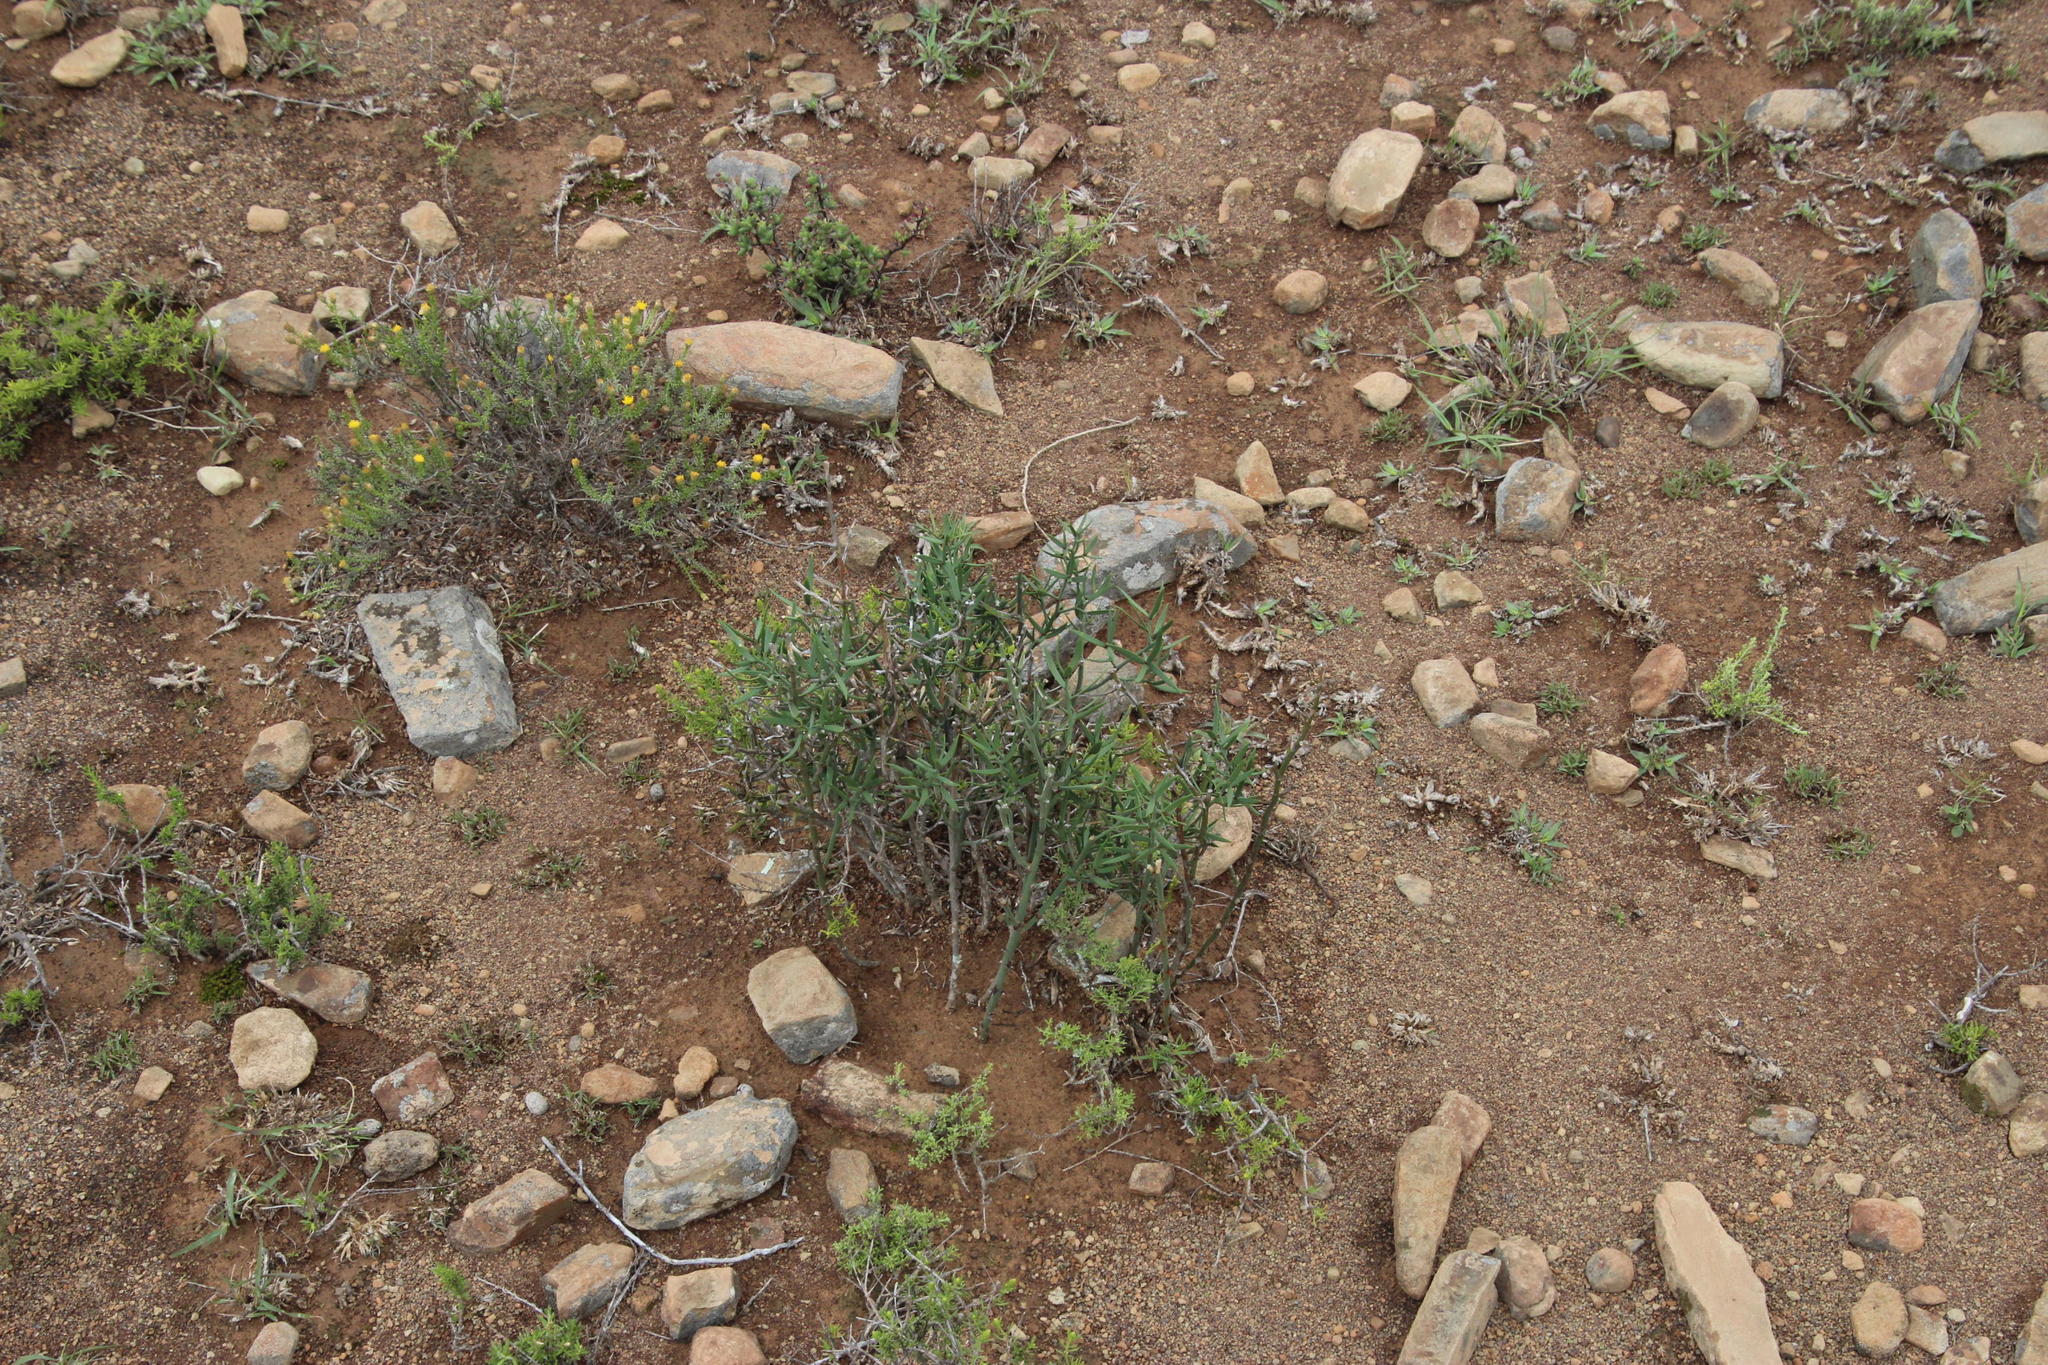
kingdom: Plantae
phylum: Tracheophyta
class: Liliopsida
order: Asparagales
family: Asparagaceae
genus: Asparagus
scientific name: Asparagus striatus
